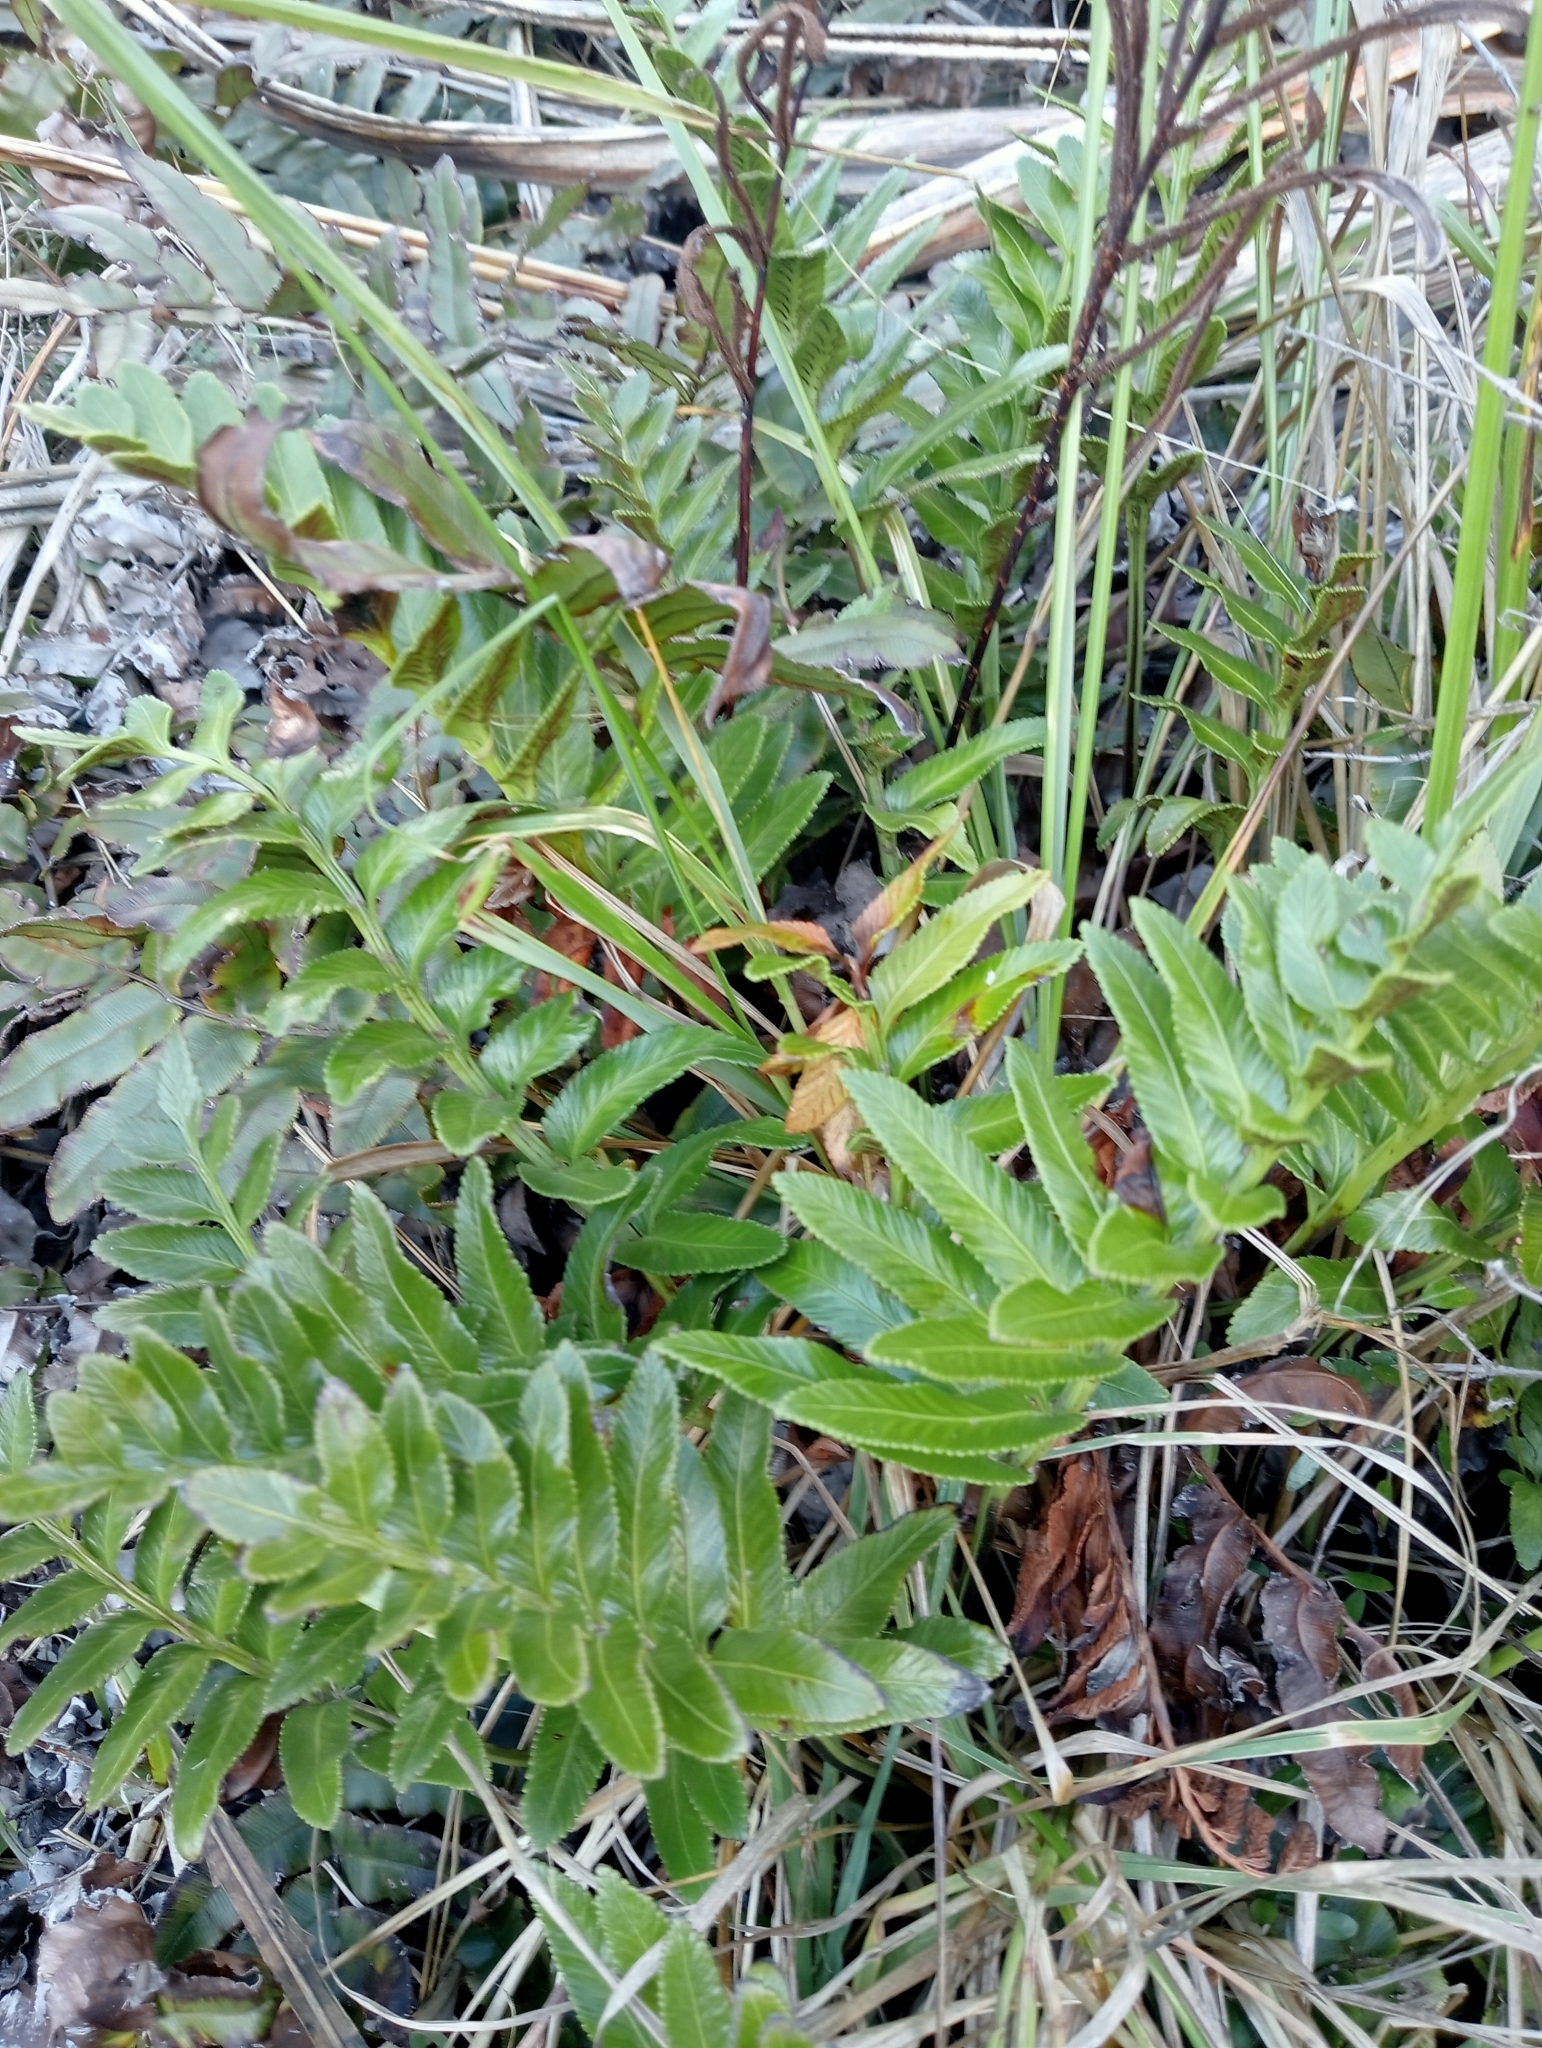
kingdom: Plantae
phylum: Tracheophyta
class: Polypodiopsida
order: Polypodiales
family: Aspleniaceae
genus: Asplenium
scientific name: Asplenium obtusatum
